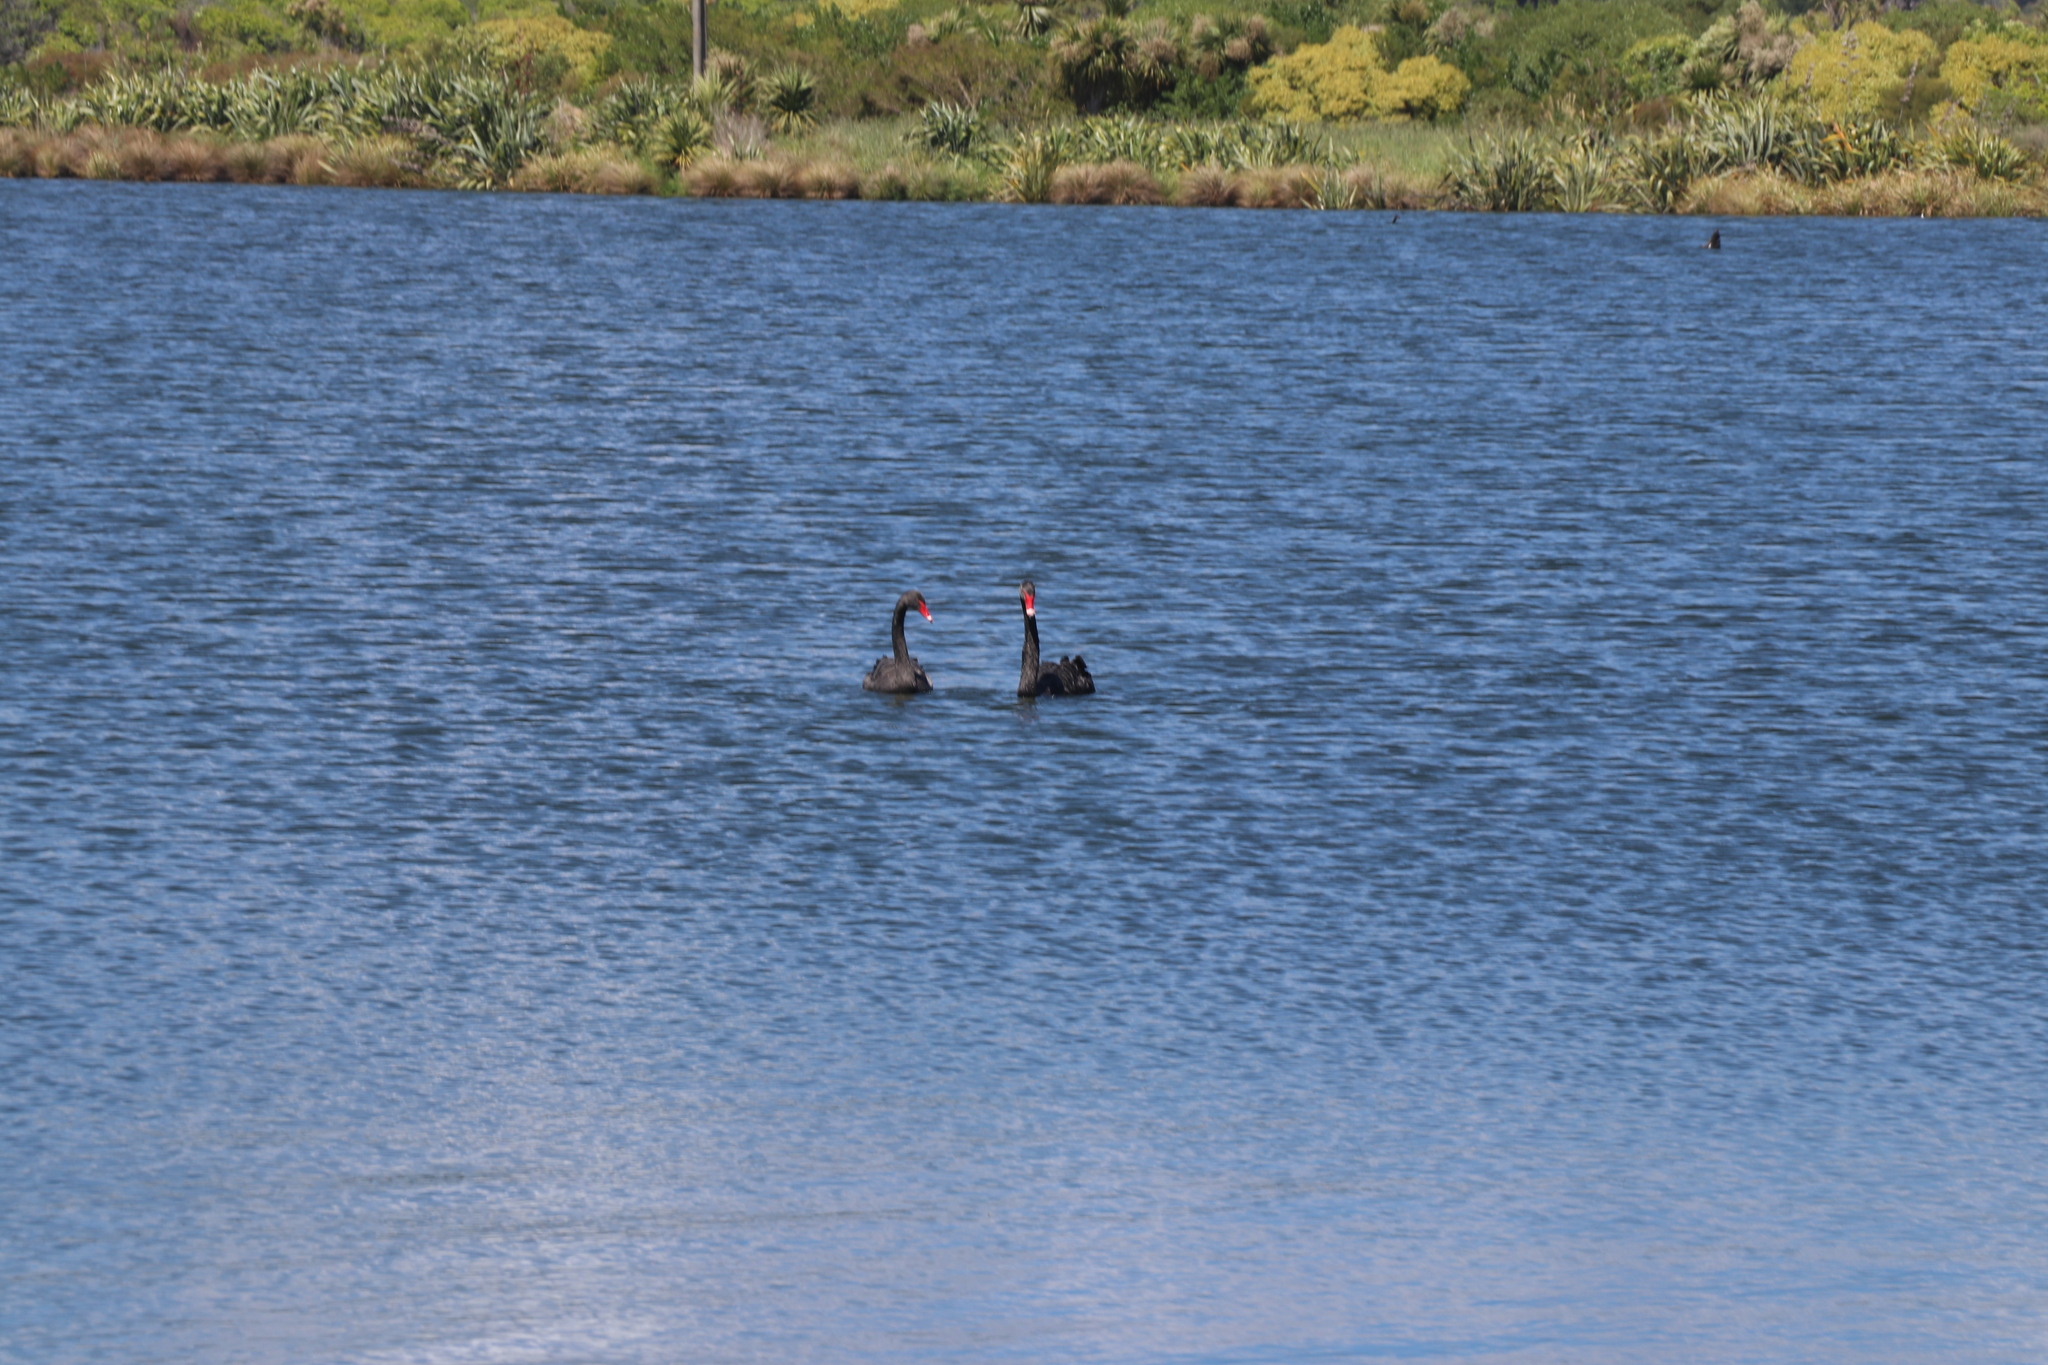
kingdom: Animalia
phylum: Chordata
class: Aves
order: Anseriformes
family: Anatidae
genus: Cygnus
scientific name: Cygnus atratus
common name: Black swan
